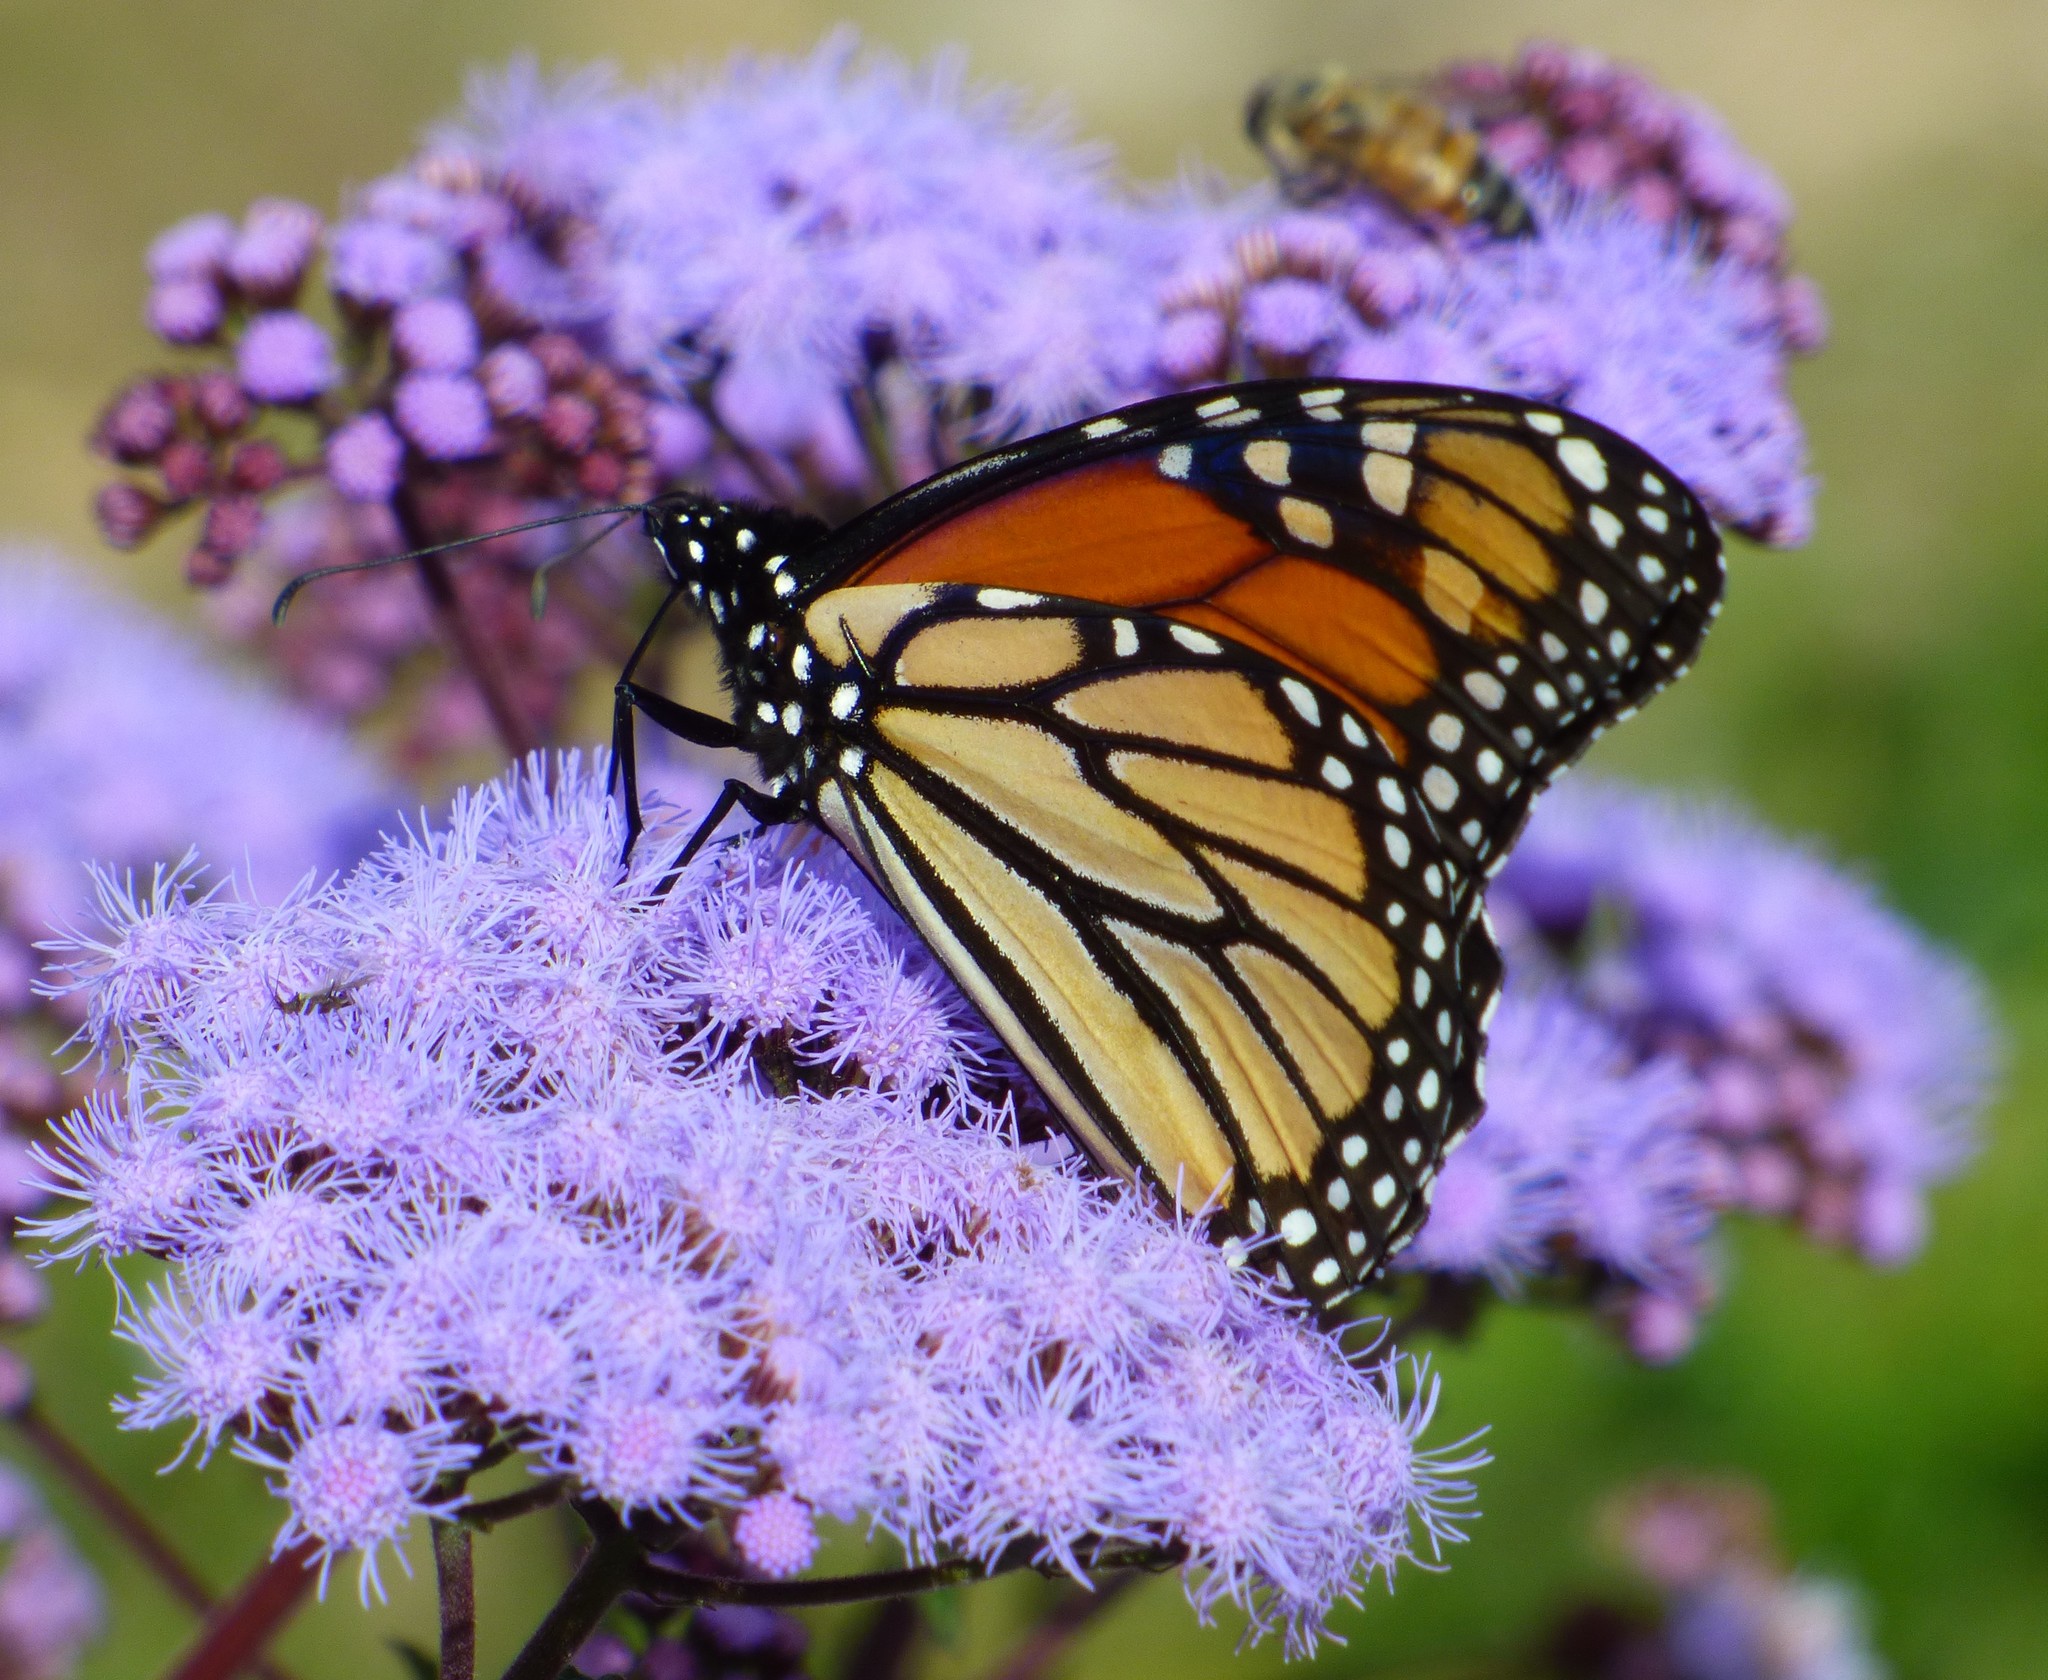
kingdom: Animalia
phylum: Arthropoda
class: Insecta
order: Lepidoptera
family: Nymphalidae
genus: Danaus
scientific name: Danaus plexippus
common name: Monarch
